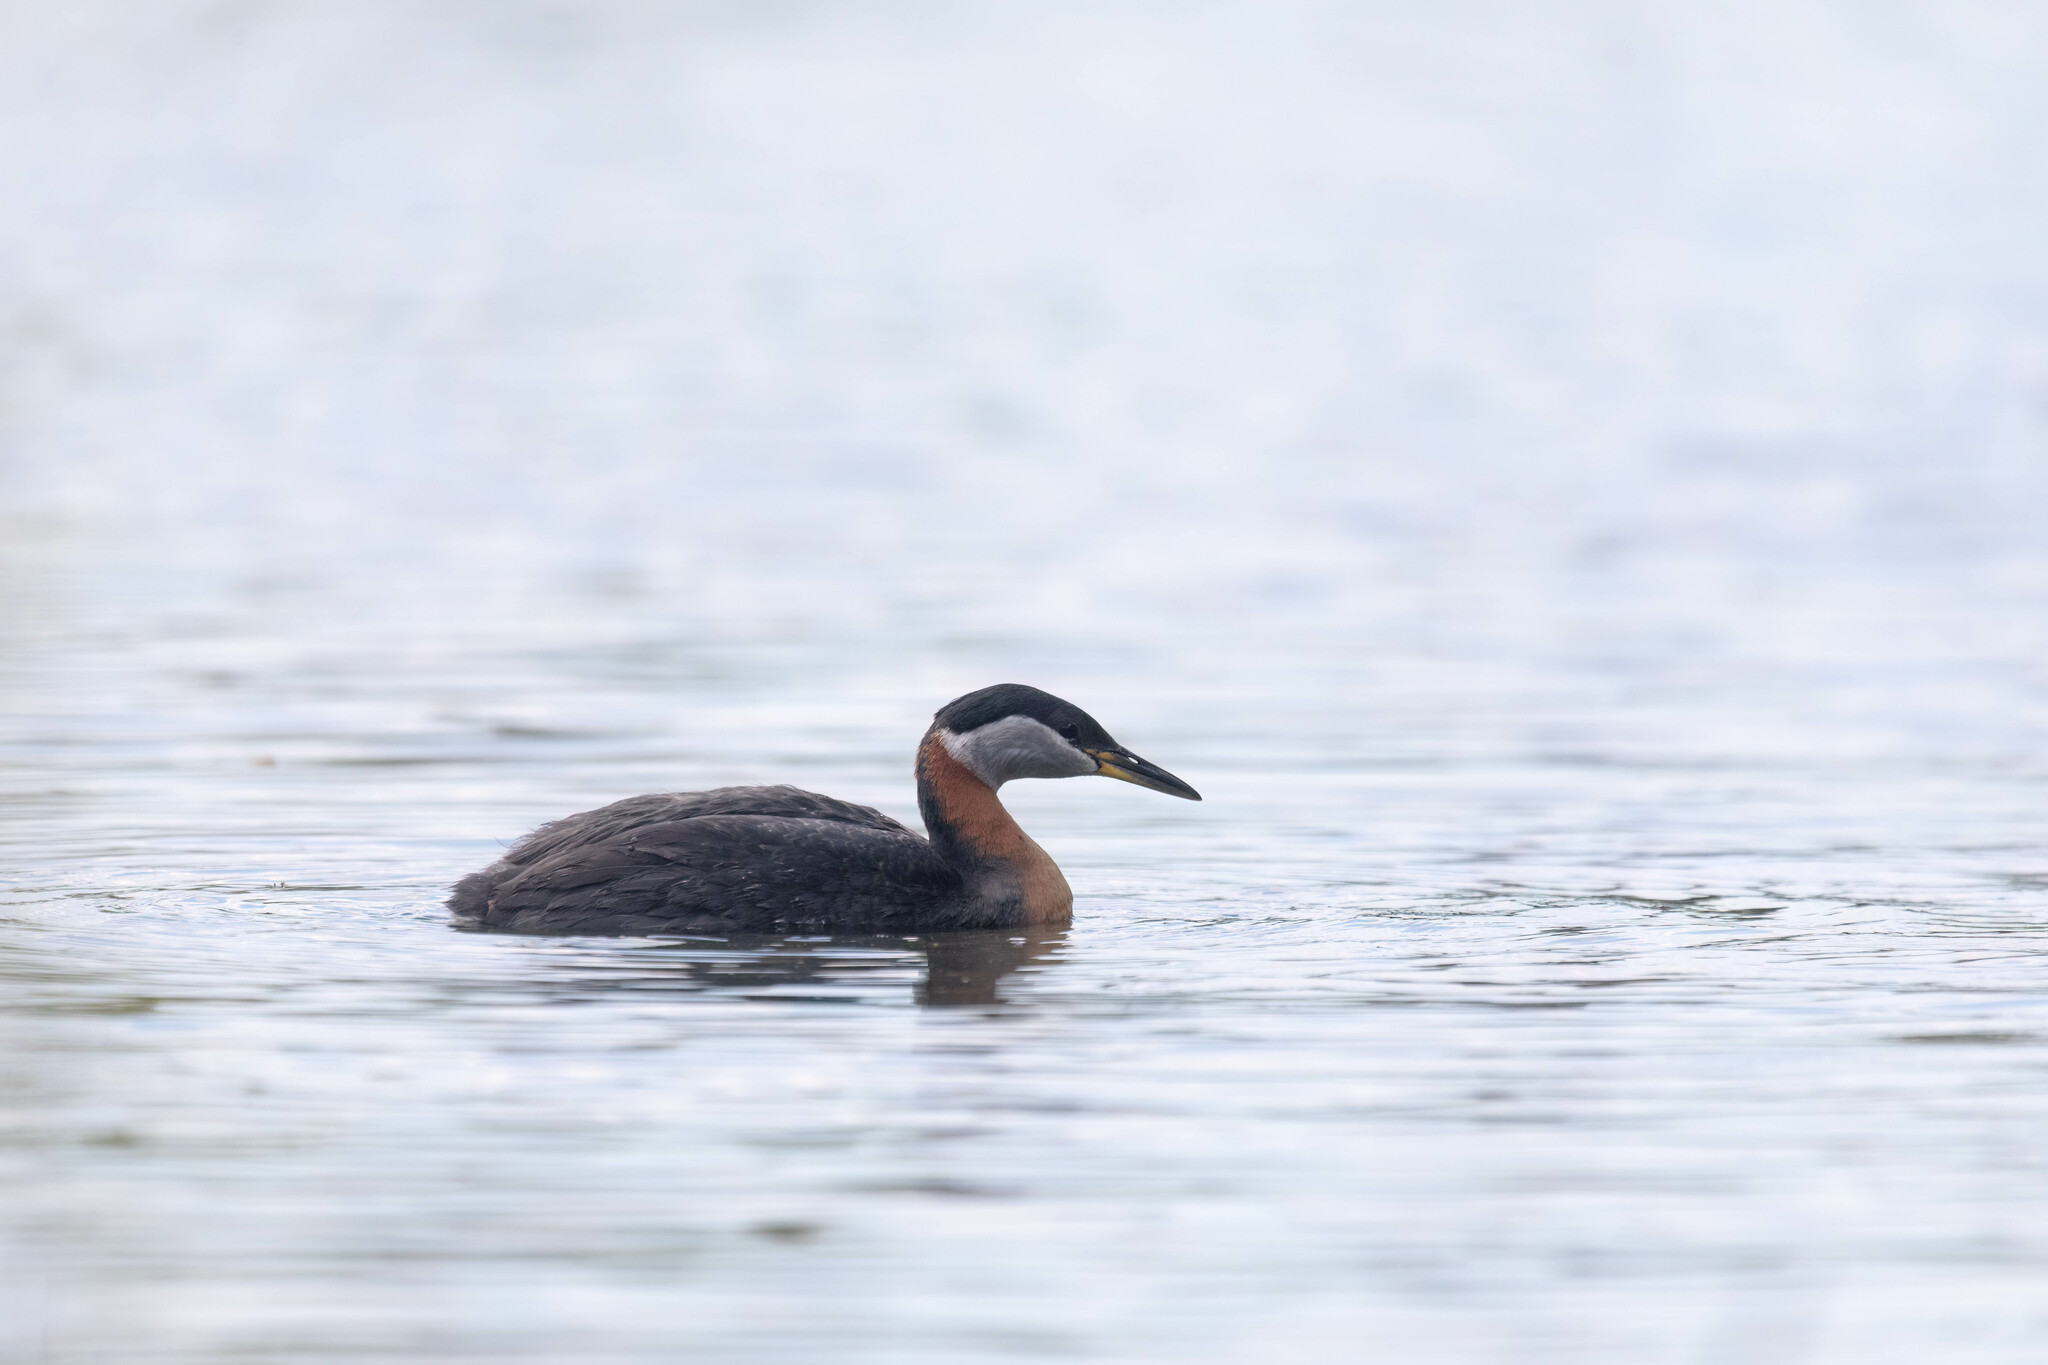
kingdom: Animalia
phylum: Chordata
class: Aves
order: Podicipediformes
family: Podicipedidae
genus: Podiceps
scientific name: Podiceps grisegena
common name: Red-necked grebe
